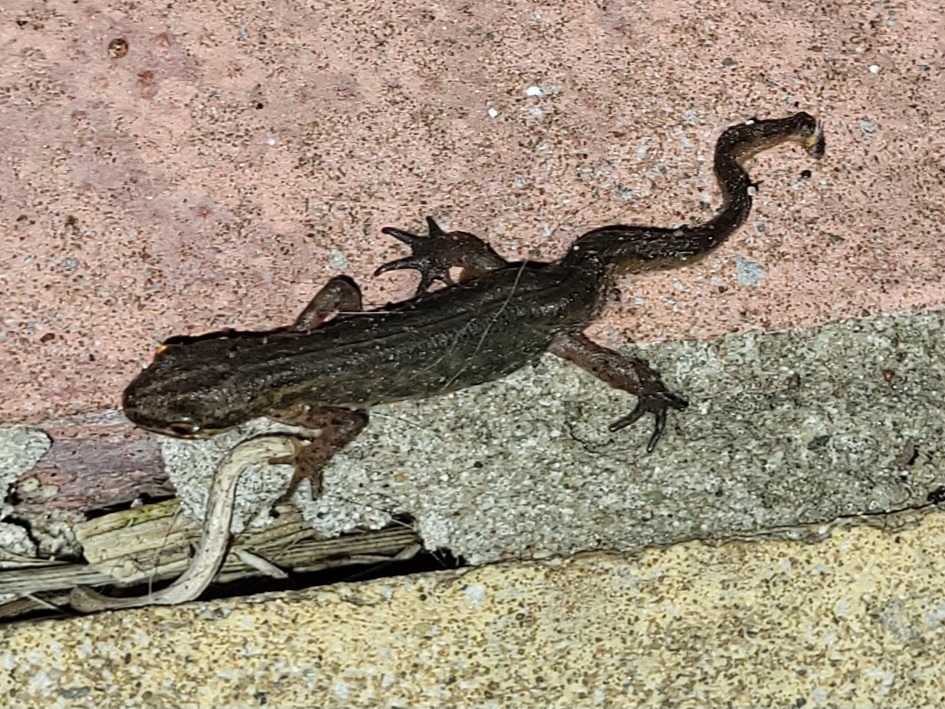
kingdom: Animalia
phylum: Chordata
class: Amphibia
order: Caudata
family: Salamandridae
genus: Lissotriton
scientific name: Lissotriton helveticus
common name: Palmate newt
